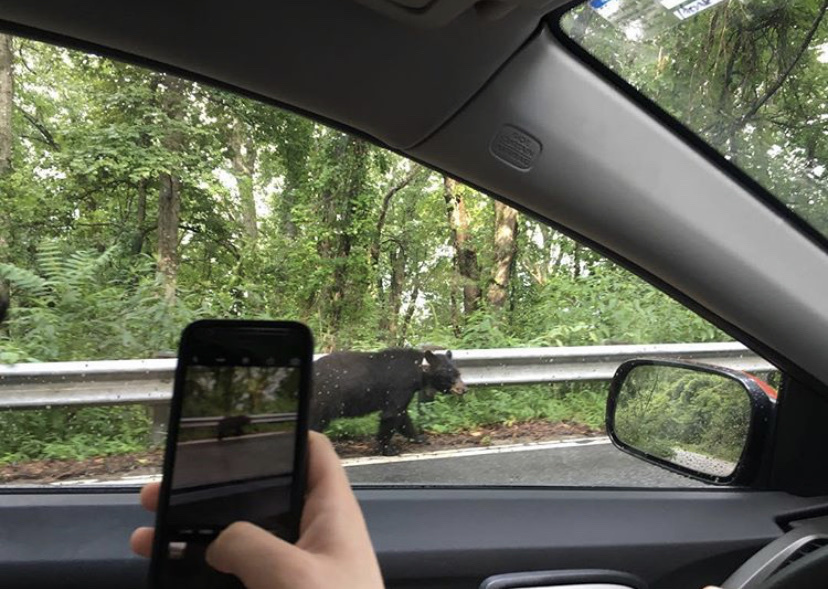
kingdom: Animalia
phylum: Chordata
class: Mammalia
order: Carnivora
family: Ursidae
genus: Ursus
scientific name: Ursus americanus
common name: American black bear
